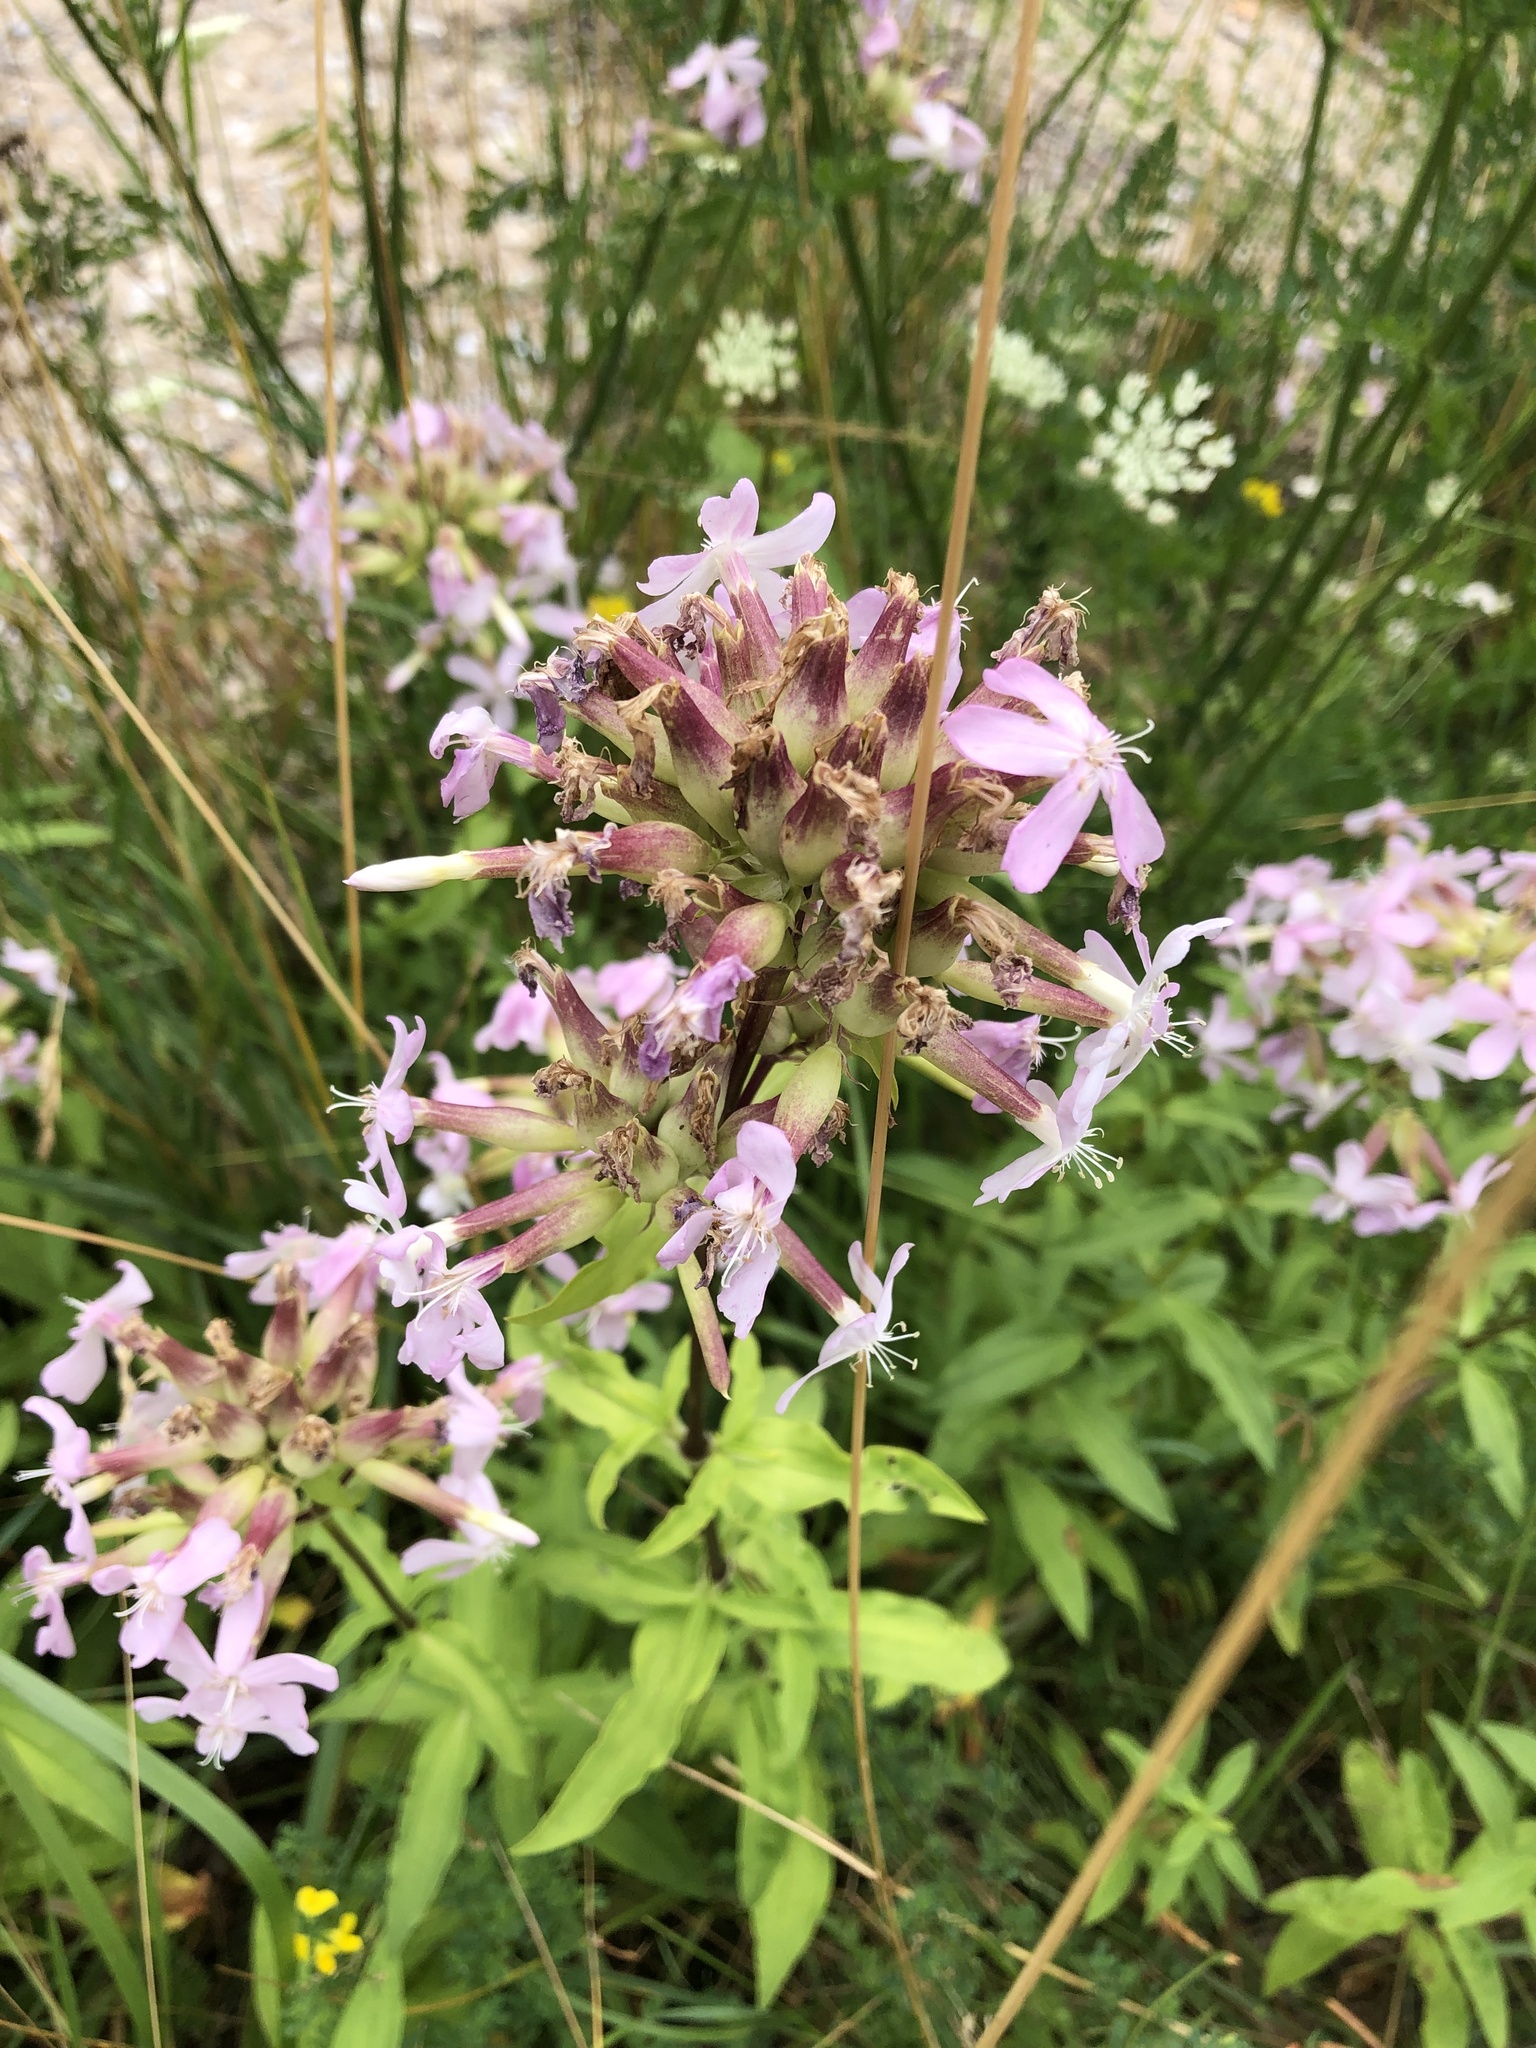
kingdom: Plantae
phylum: Tracheophyta
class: Magnoliopsida
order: Caryophyllales
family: Caryophyllaceae
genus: Saponaria
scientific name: Saponaria officinalis
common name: Soapwort
